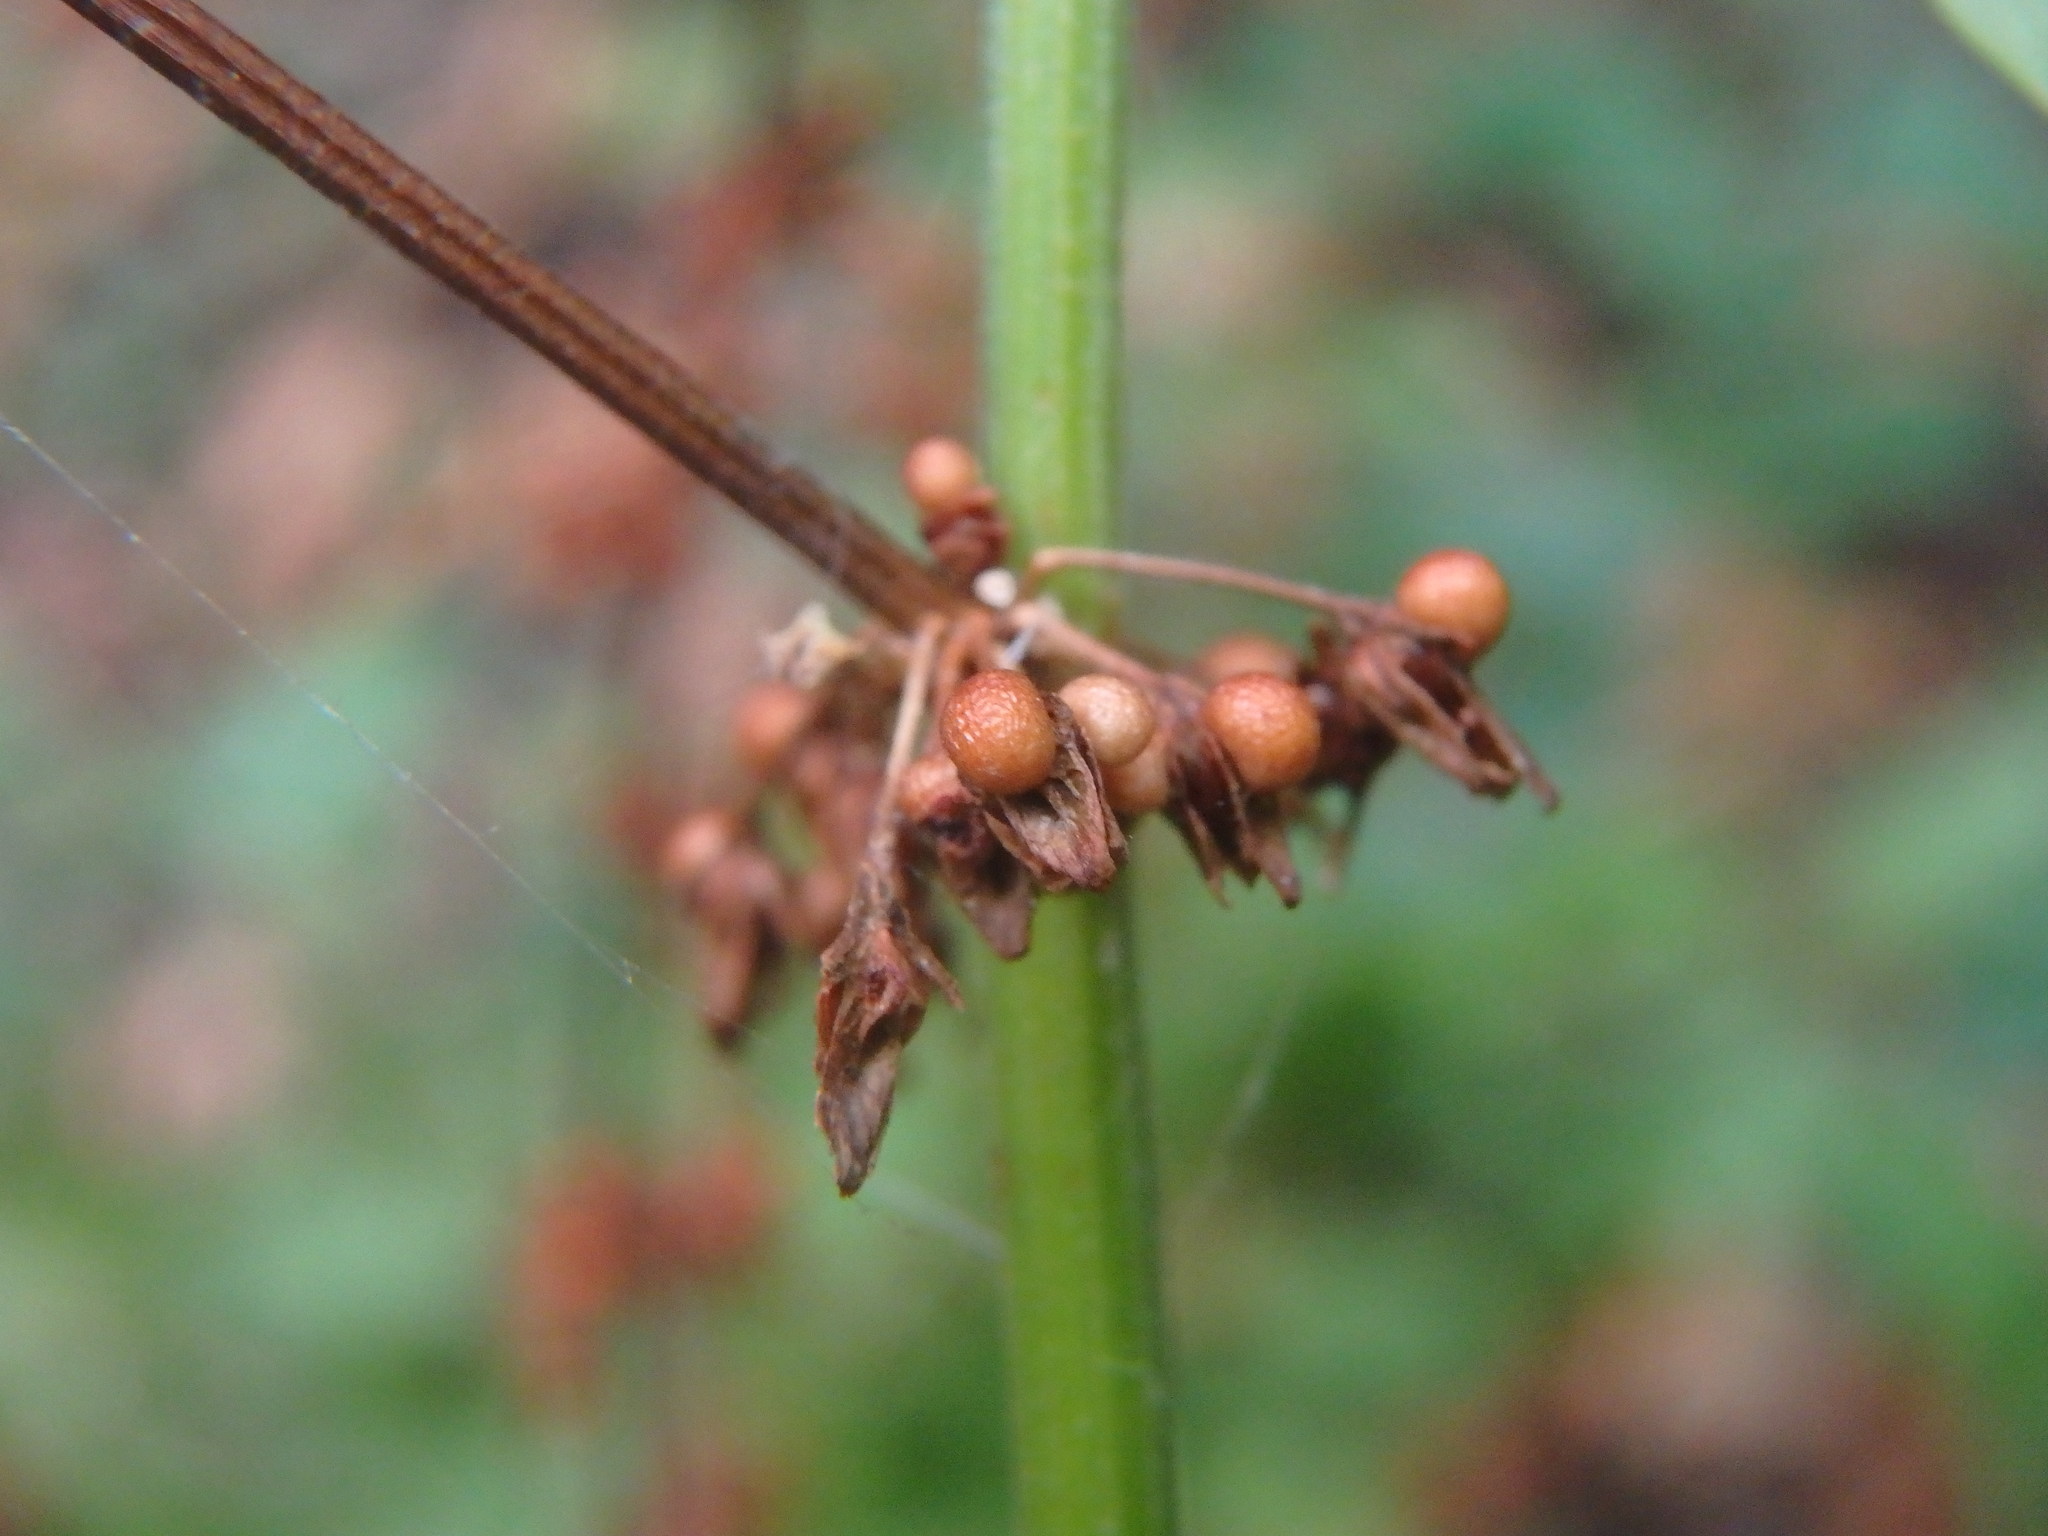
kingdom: Plantae
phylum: Tracheophyta
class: Magnoliopsida
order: Caryophyllales
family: Polygonaceae
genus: Rumex
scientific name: Rumex sanguineus
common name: Wood dock
